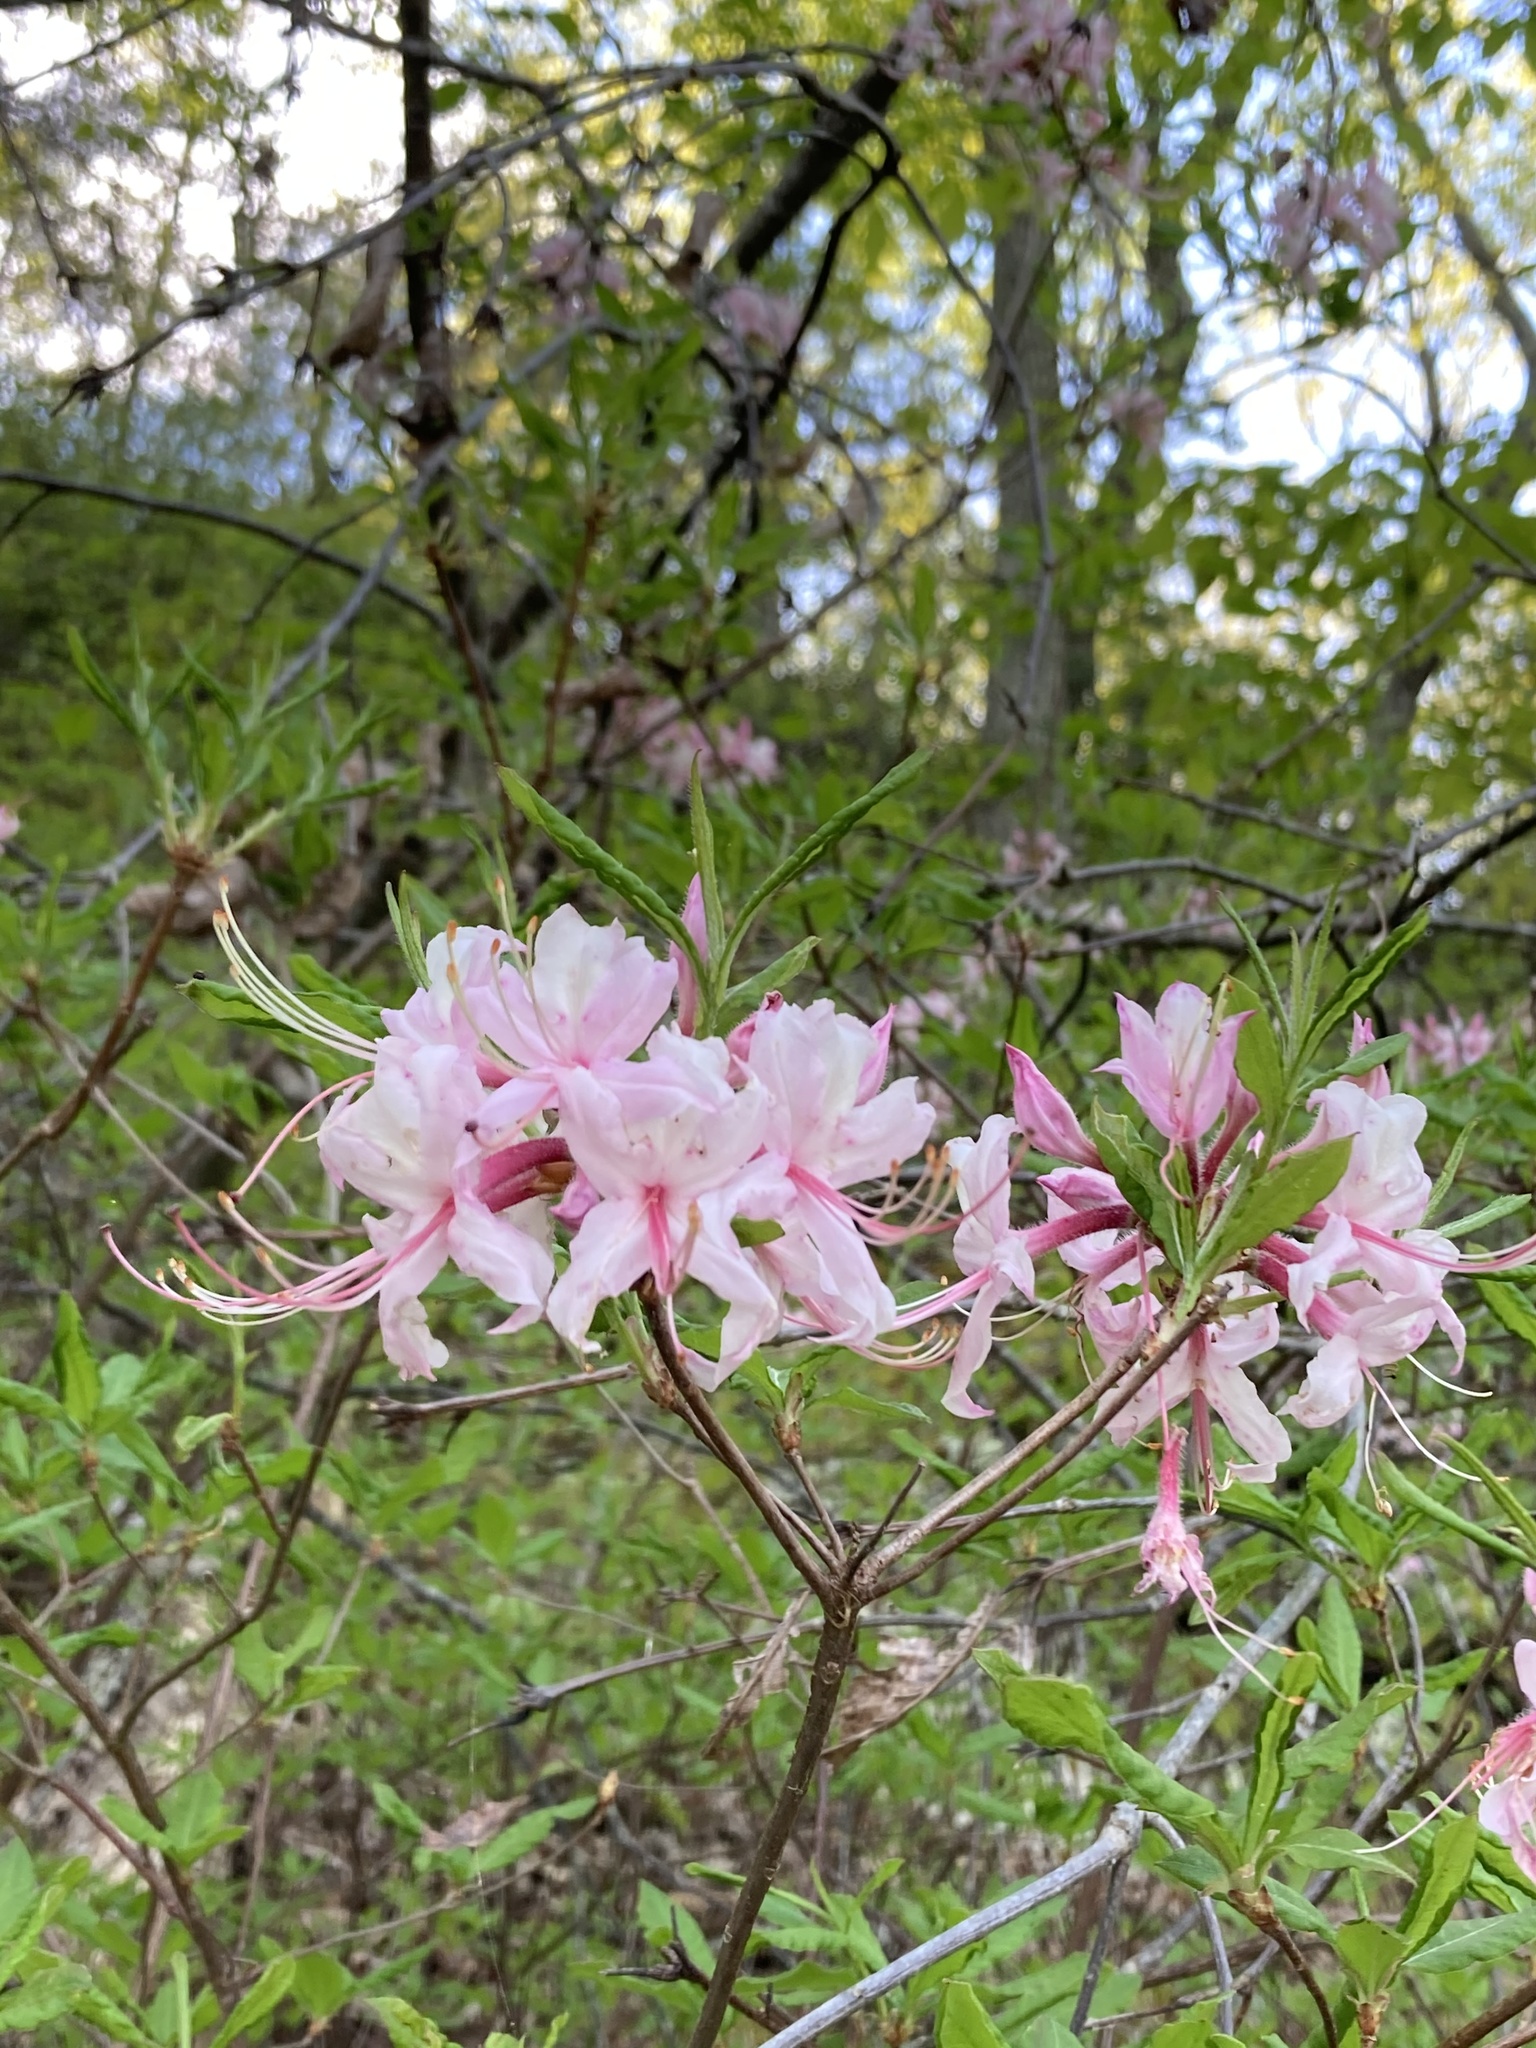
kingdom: Plantae
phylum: Tracheophyta
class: Magnoliopsida
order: Ericales
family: Ericaceae
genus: Rhododendron
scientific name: Rhododendron periclymenoides
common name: Election-pink
